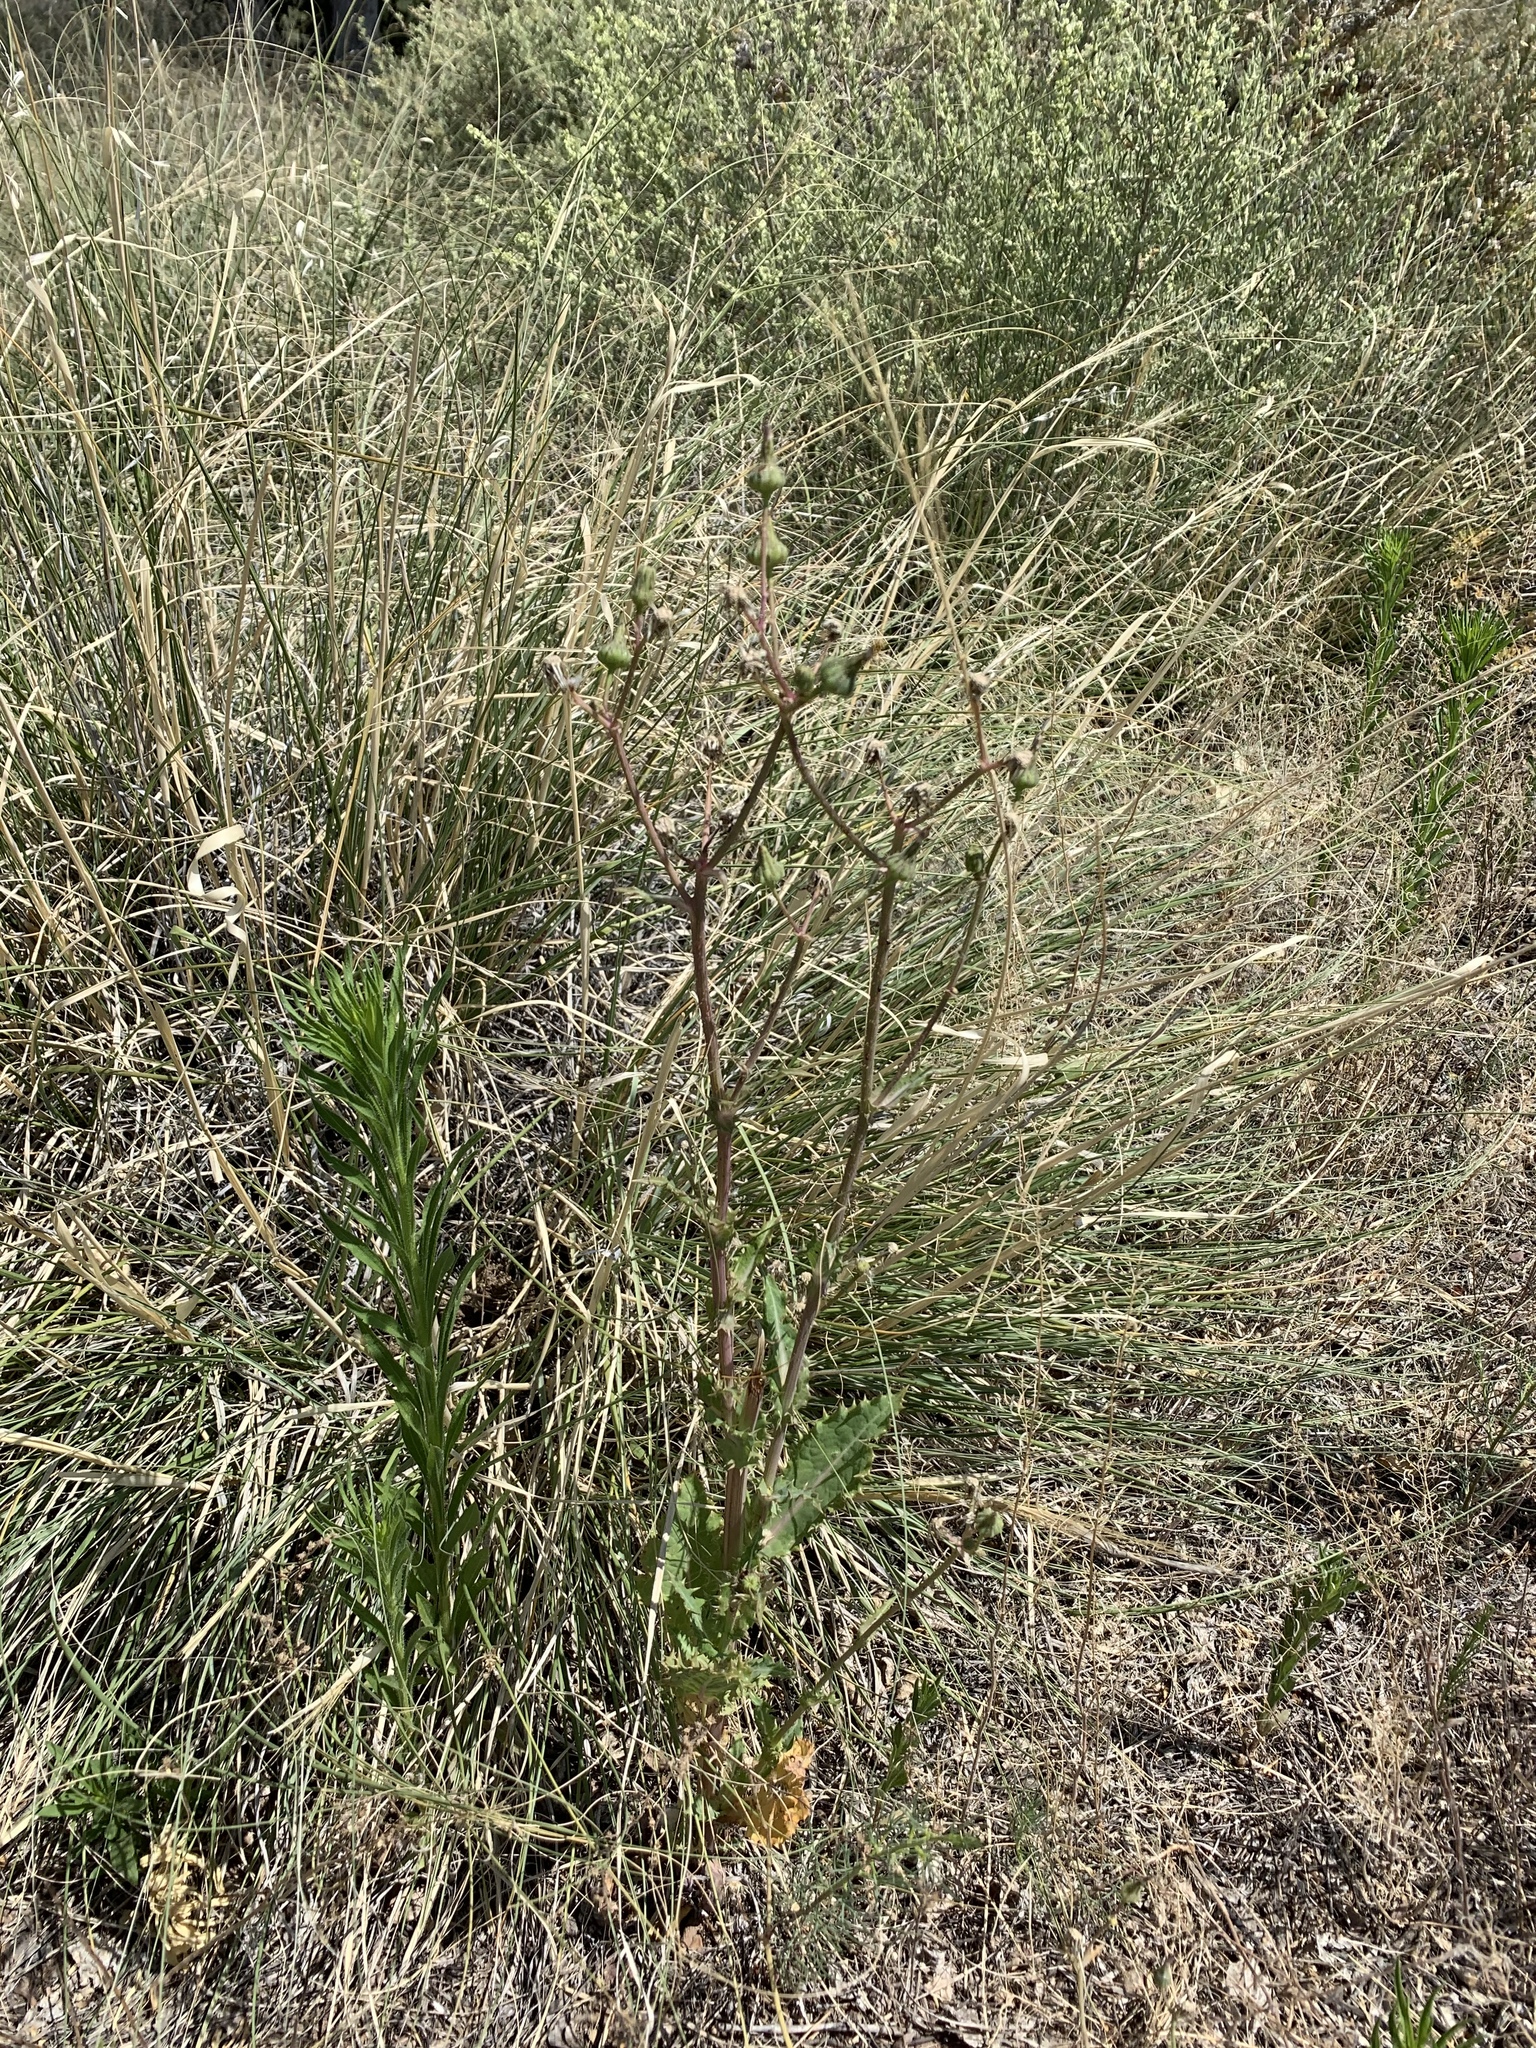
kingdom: Plantae
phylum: Tracheophyta
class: Magnoliopsida
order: Asterales
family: Asteraceae
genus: Lactuca
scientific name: Lactuca serriola
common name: Prickly lettuce
